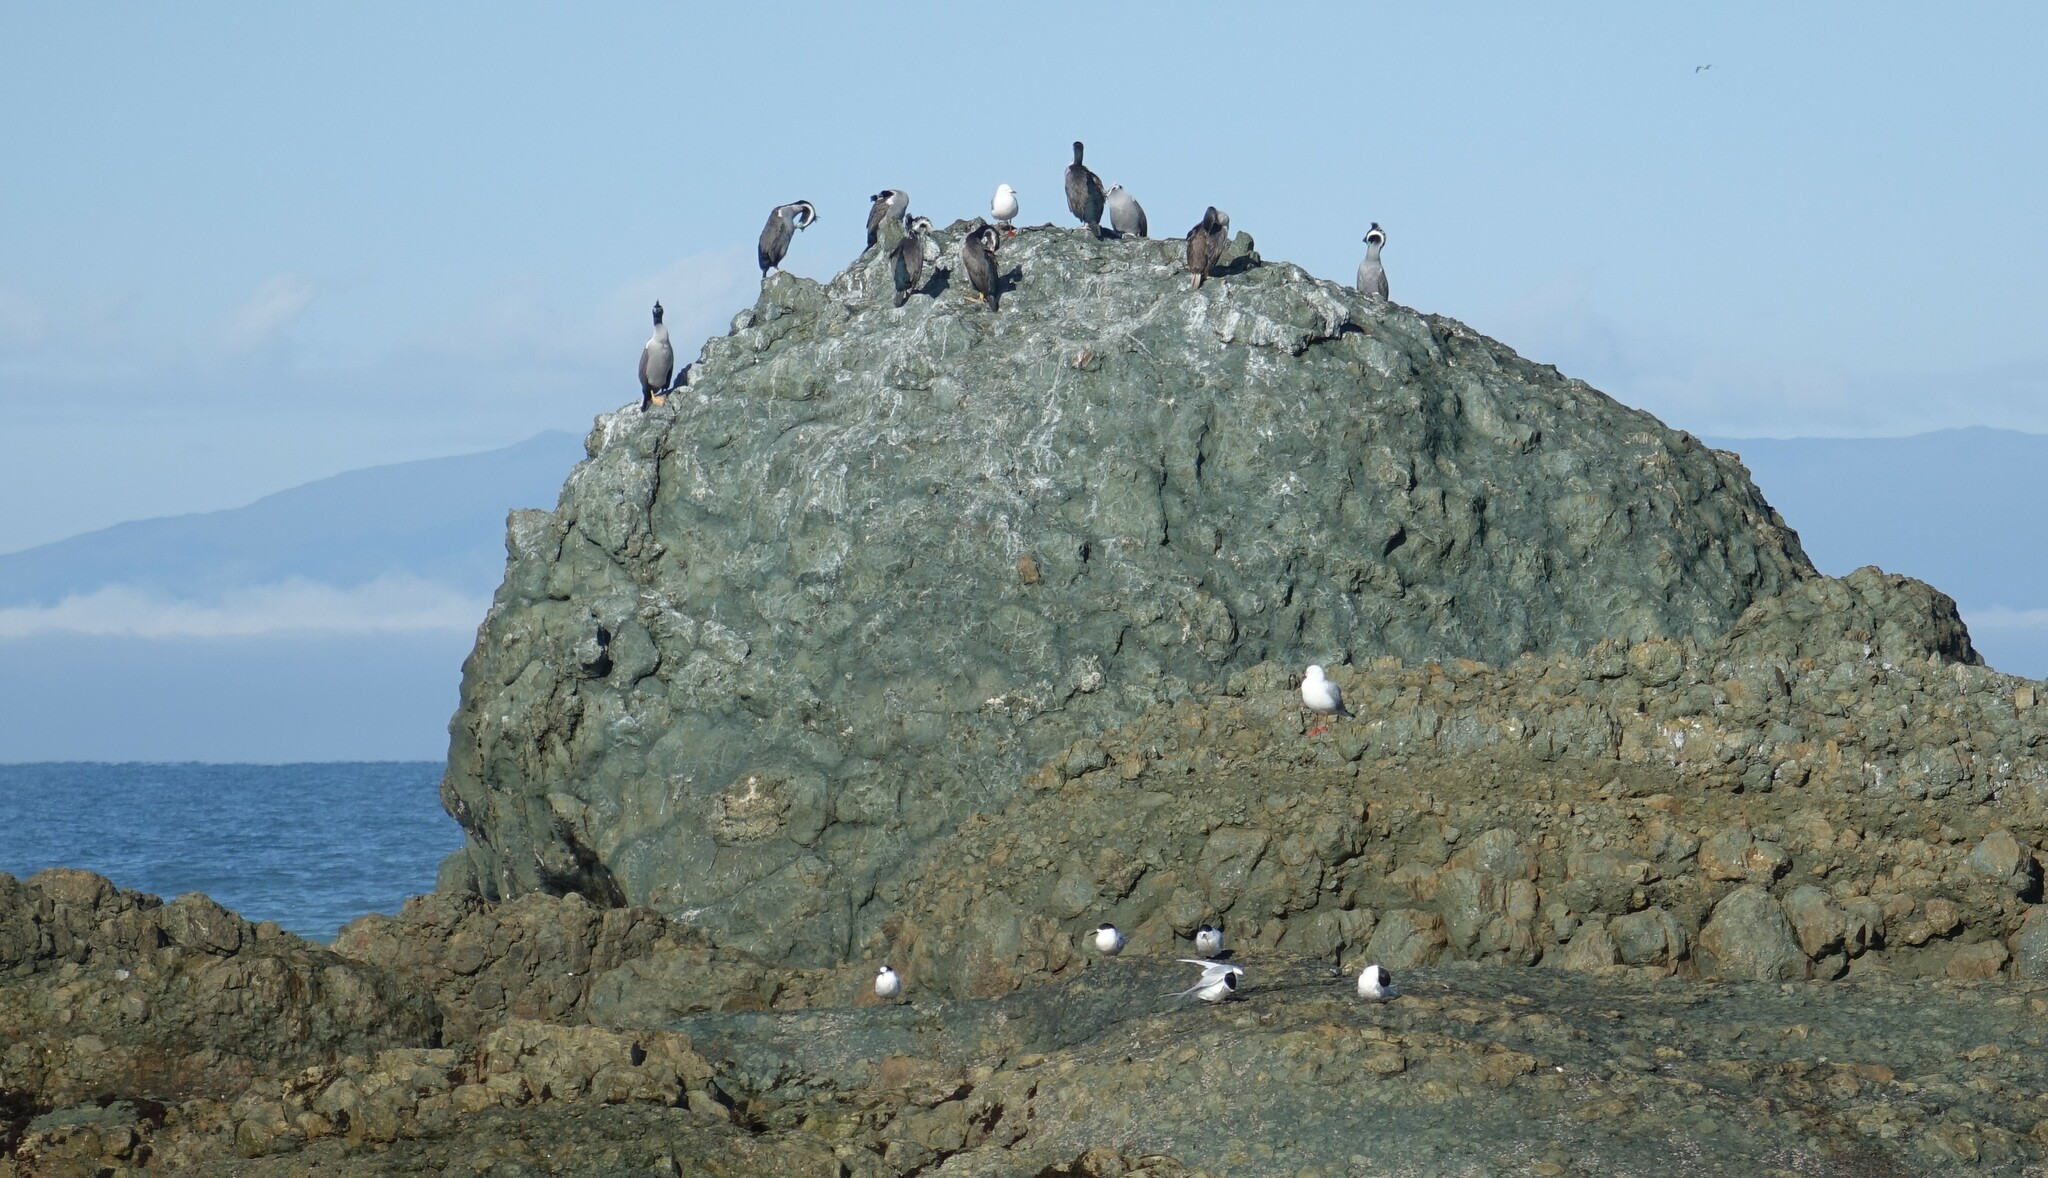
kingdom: Animalia
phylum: Chordata
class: Aves
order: Suliformes
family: Phalacrocoracidae
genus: Phalacrocorax
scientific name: Phalacrocorax punctatus
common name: Spotted shag
